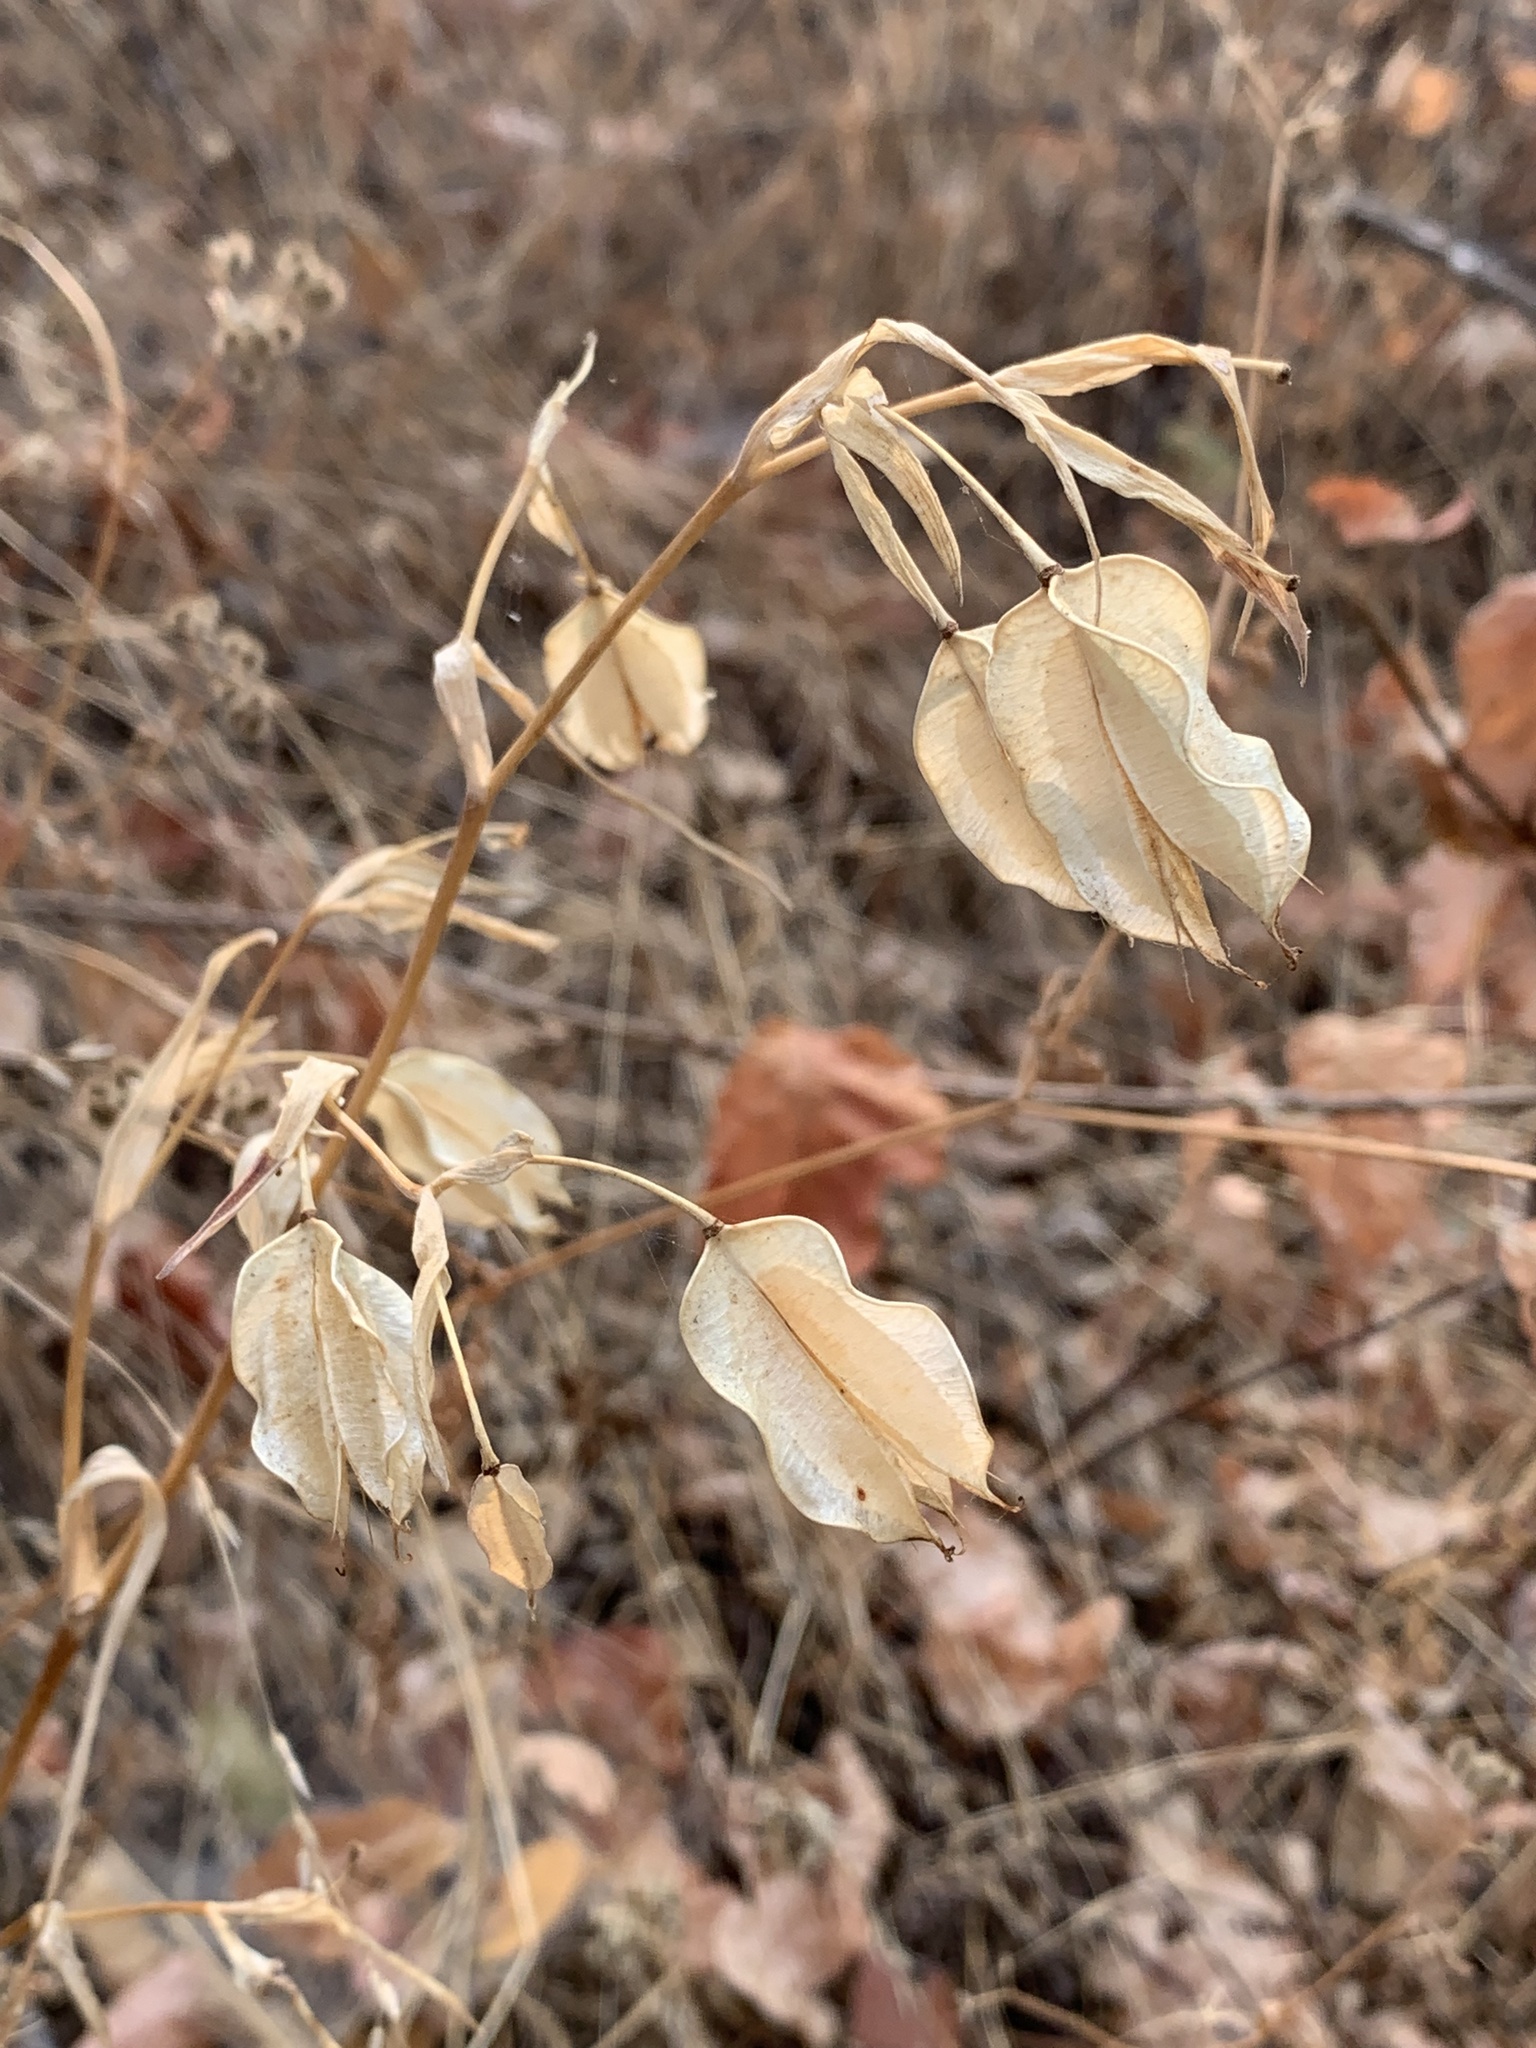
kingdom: Plantae
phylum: Tracheophyta
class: Liliopsida
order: Liliales
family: Liliaceae
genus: Calochortus
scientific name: Calochortus albus
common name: Fairy-lantern
